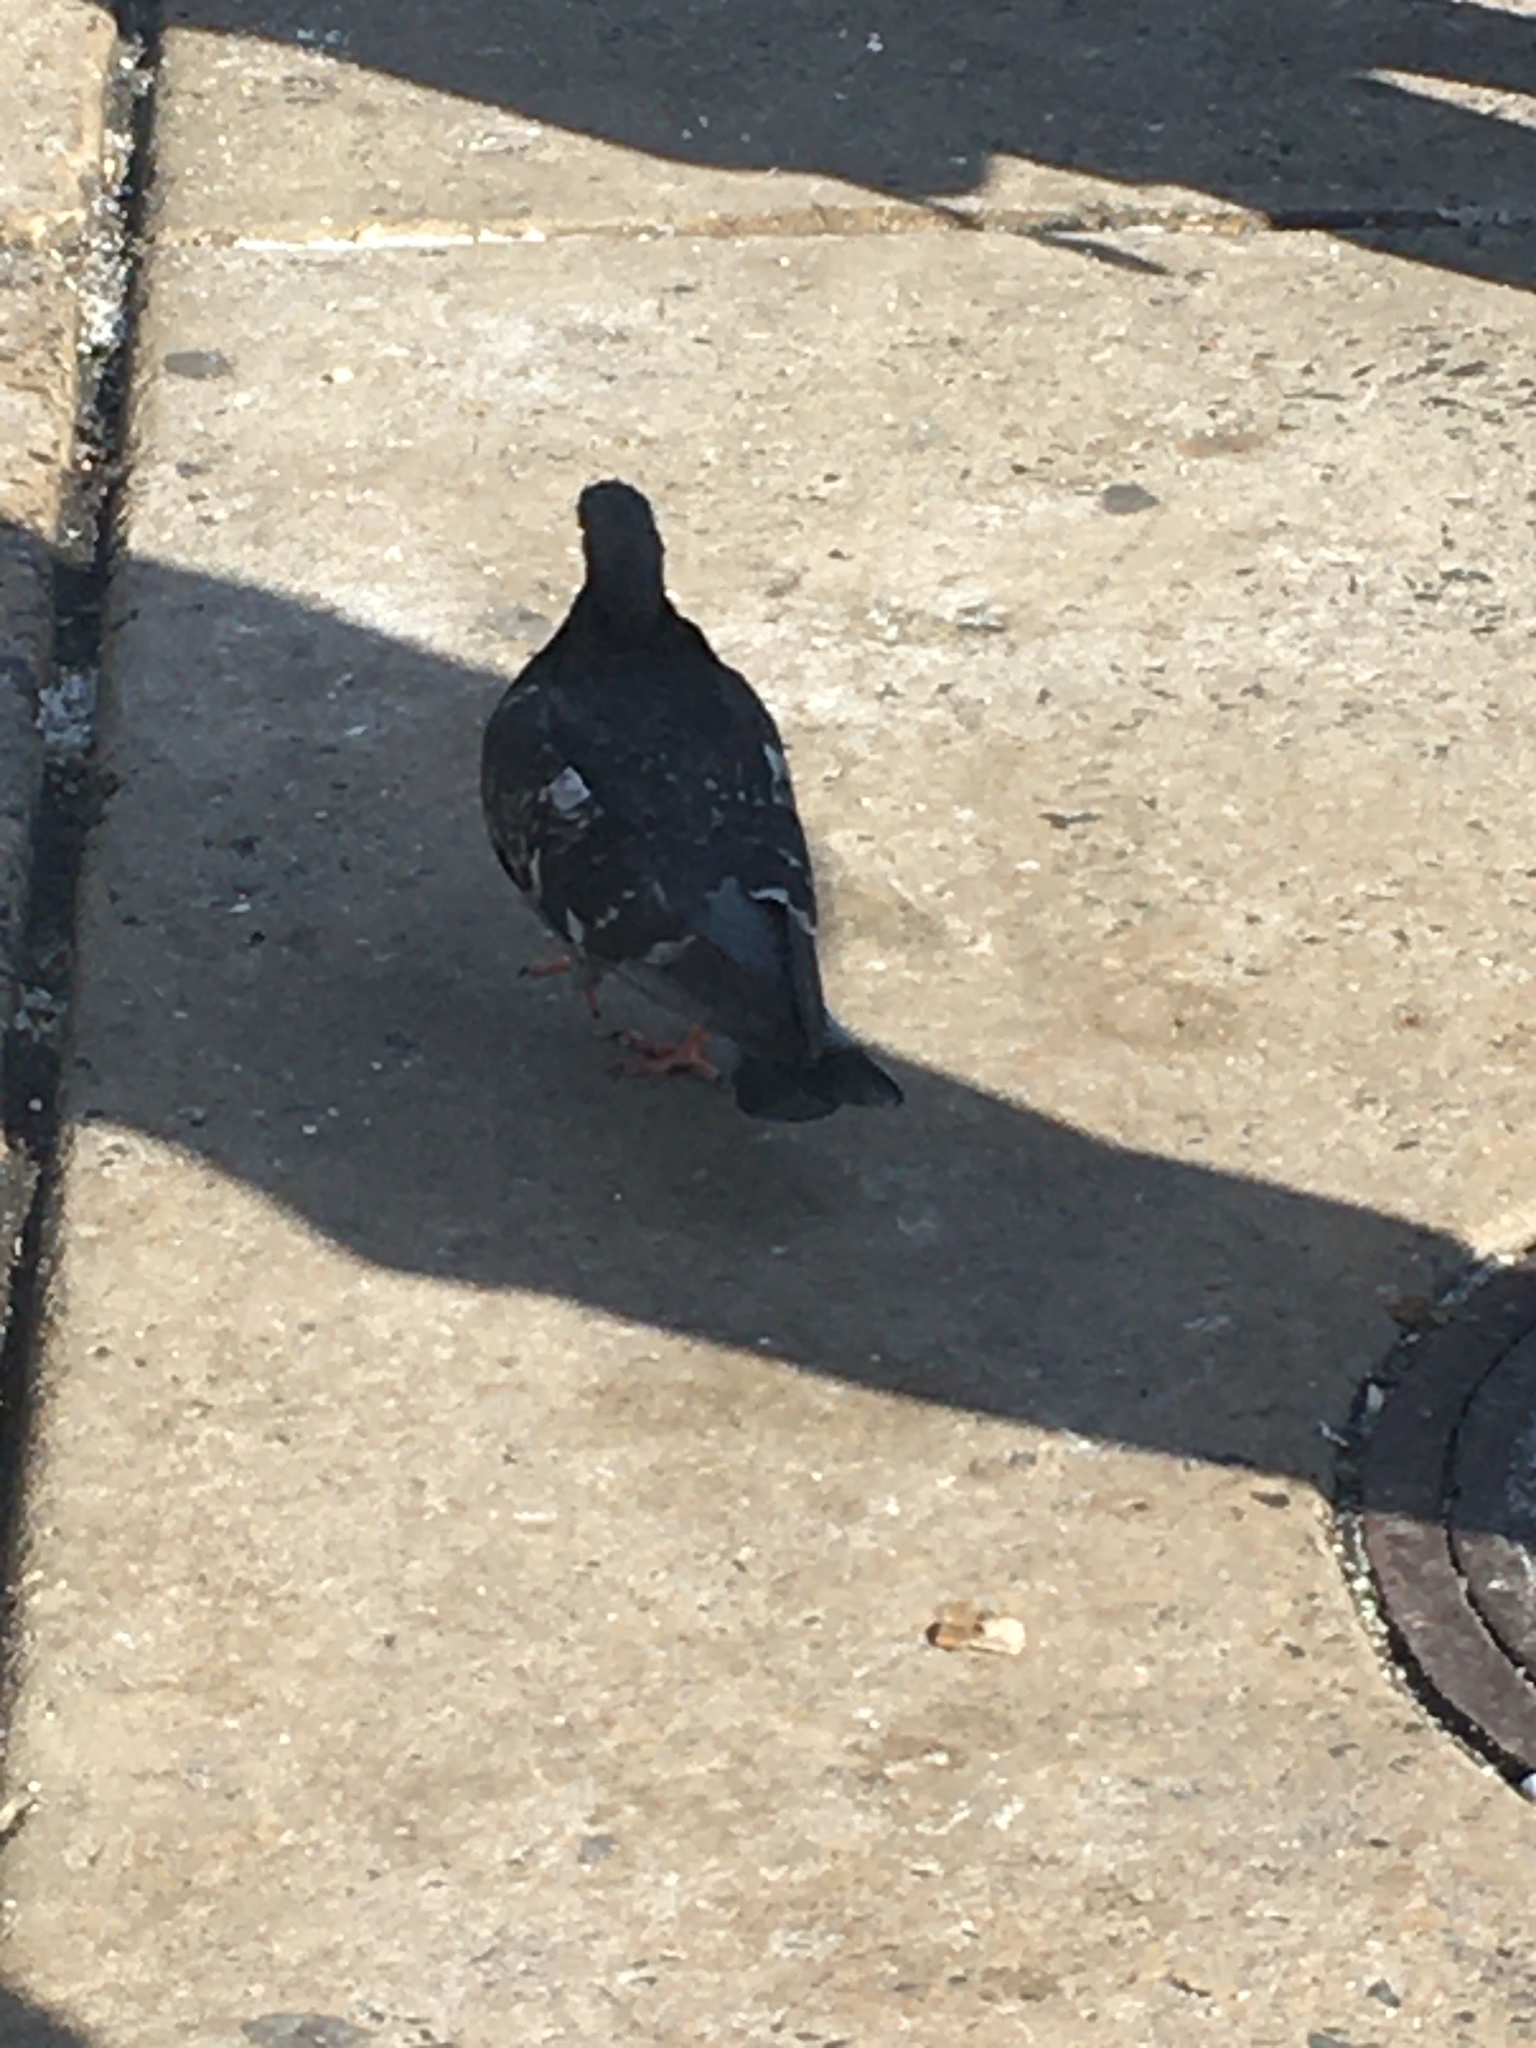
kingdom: Animalia
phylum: Chordata
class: Aves
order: Columbiformes
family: Columbidae
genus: Columba
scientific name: Columba livia
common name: Rock pigeon
